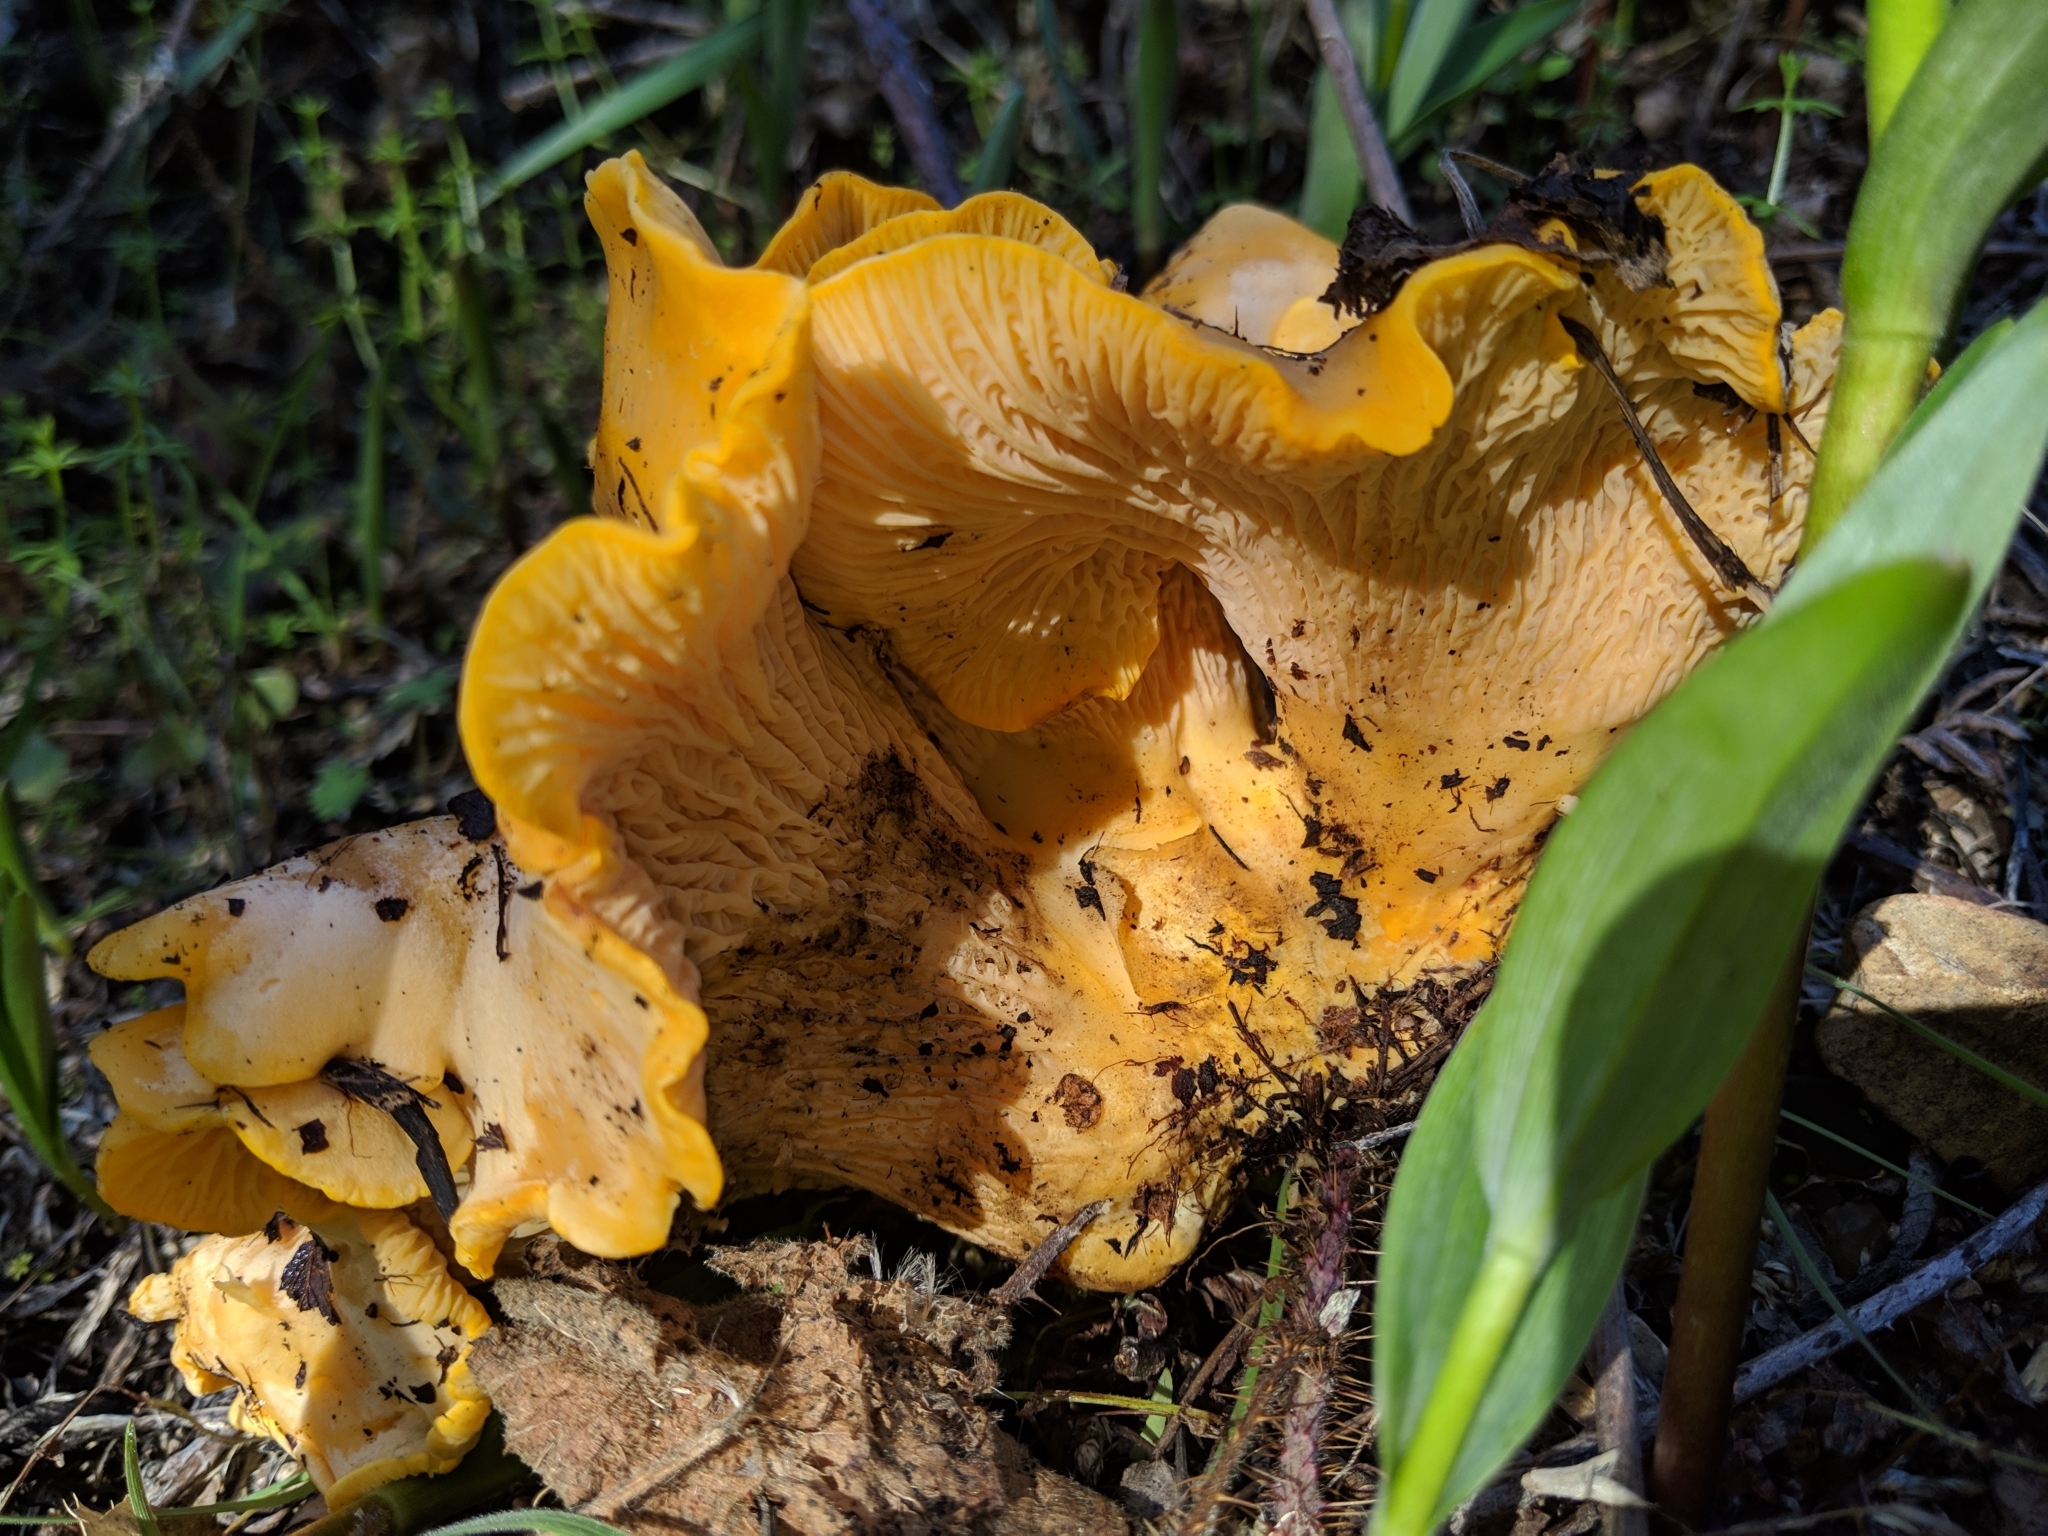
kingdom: Fungi
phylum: Basidiomycota
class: Agaricomycetes
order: Cantharellales
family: Hydnaceae
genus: Cantharellus
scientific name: Cantharellus californicus
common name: California golden chanterelle
